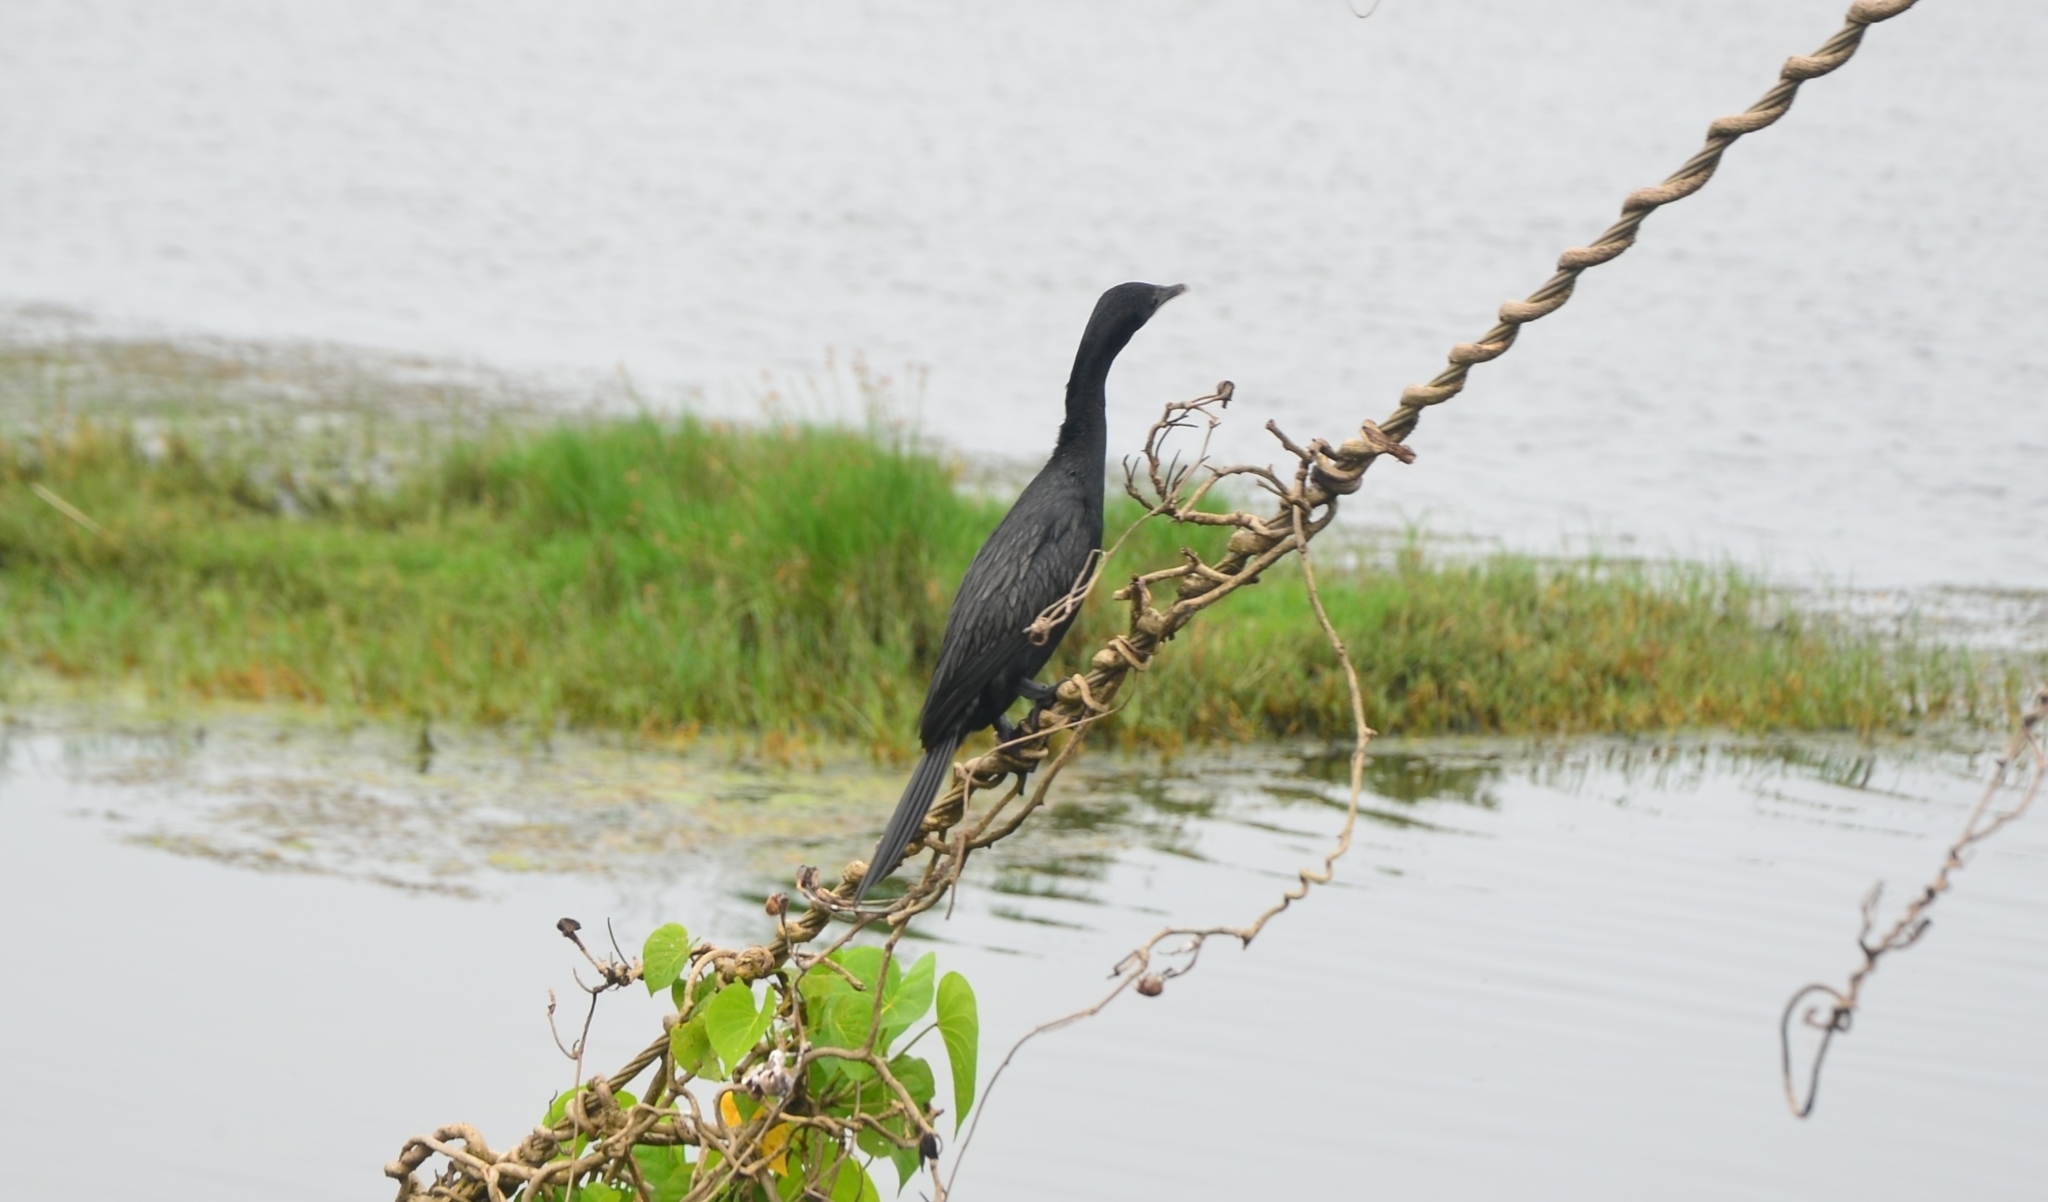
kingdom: Animalia
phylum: Chordata
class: Aves
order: Suliformes
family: Phalacrocoracidae
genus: Microcarbo
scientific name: Microcarbo niger
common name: Little cormorant
